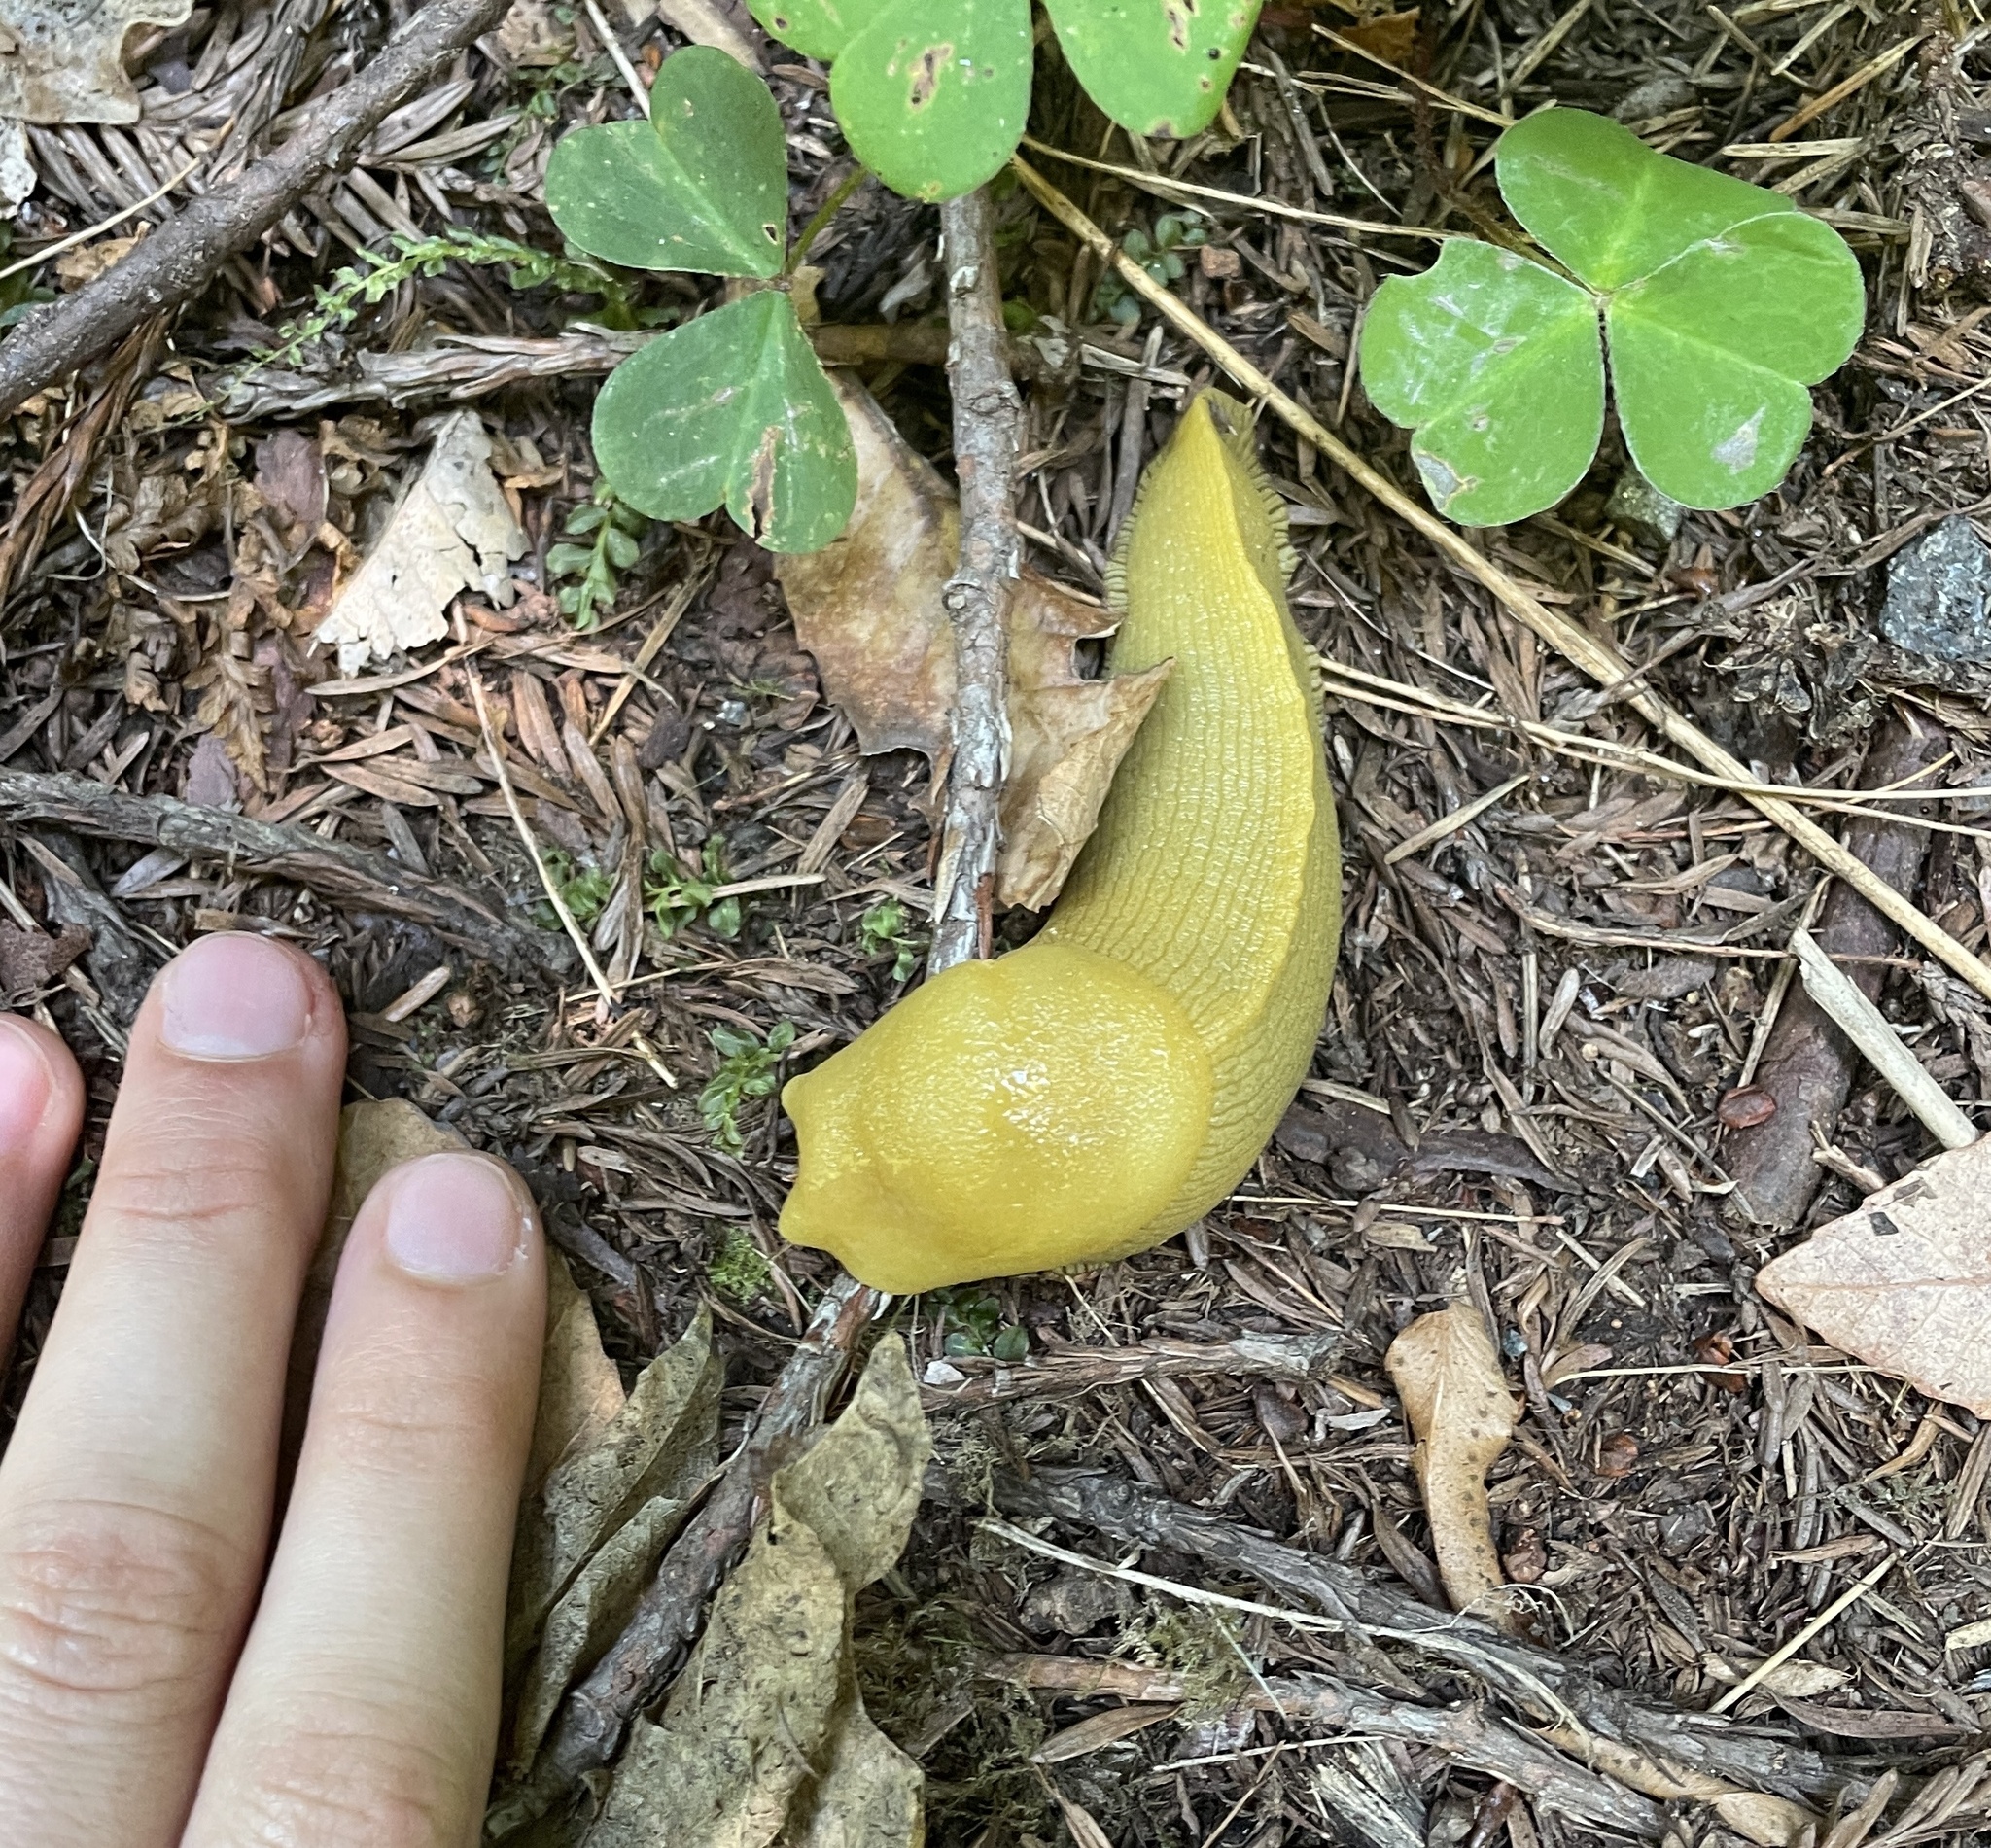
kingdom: Animalia
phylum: Mollusca
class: Gastropoda
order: Stylommatophora
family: Ariolimacidae
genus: Ariolimax
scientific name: Ariolimax columbianus
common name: Pacific banana slug
